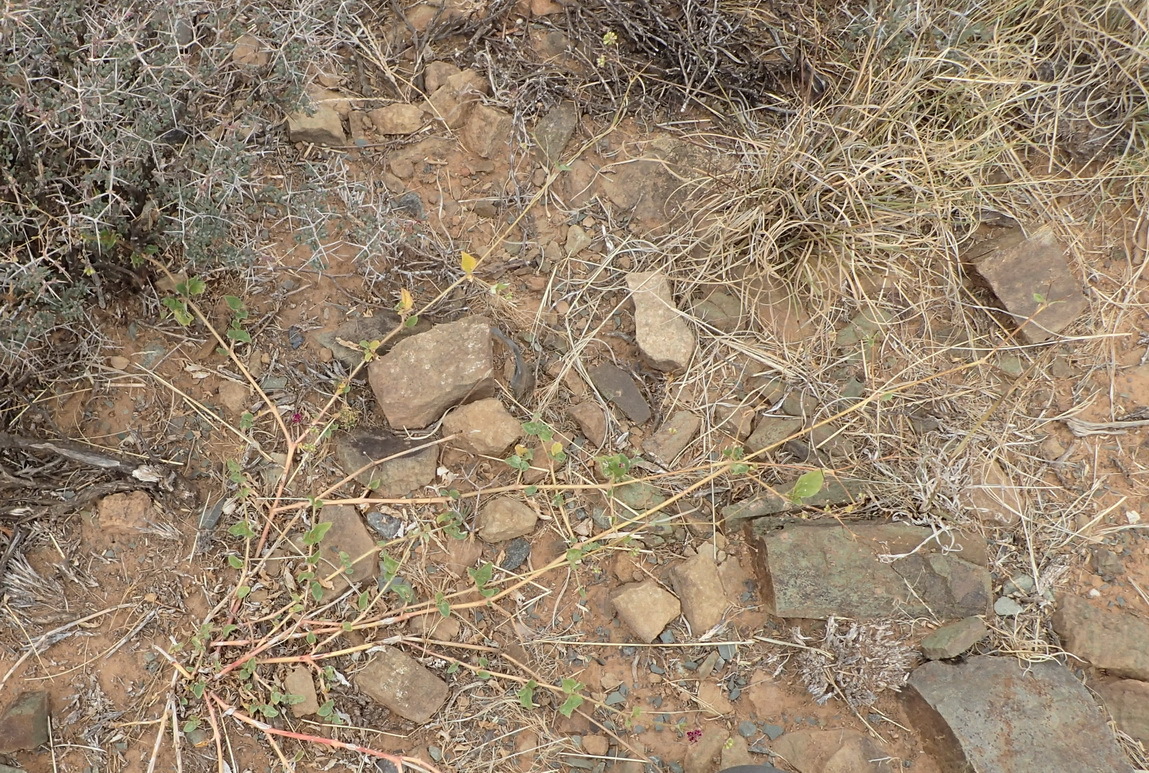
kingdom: Plantae
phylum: Tracheophyta
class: Magnoliopsida
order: Caryophyllales
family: Nyctaginaceae
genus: Boerhavia
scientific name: Boerhavia cordobensis
